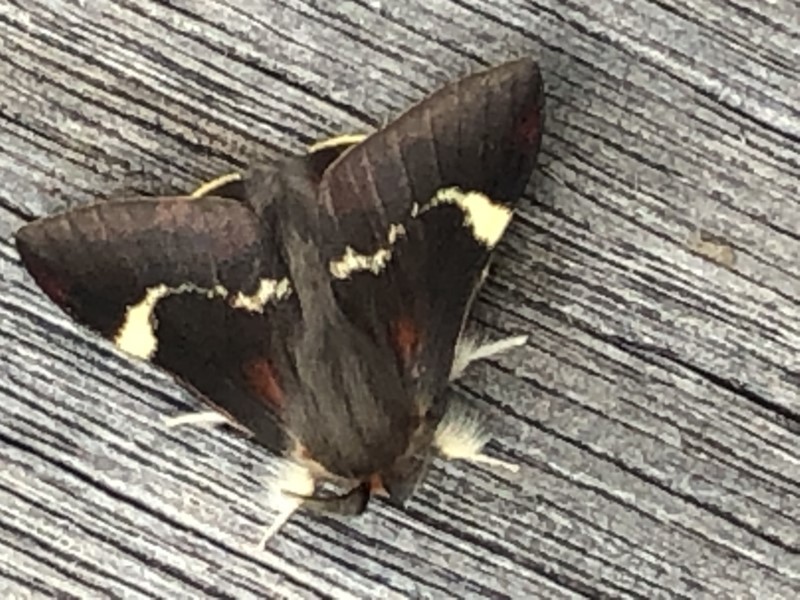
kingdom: Animalia
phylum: Arthropoda
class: Insecta
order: Lepidoptera
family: Anthelidae
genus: Nataxa
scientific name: Nataxa flavescens
